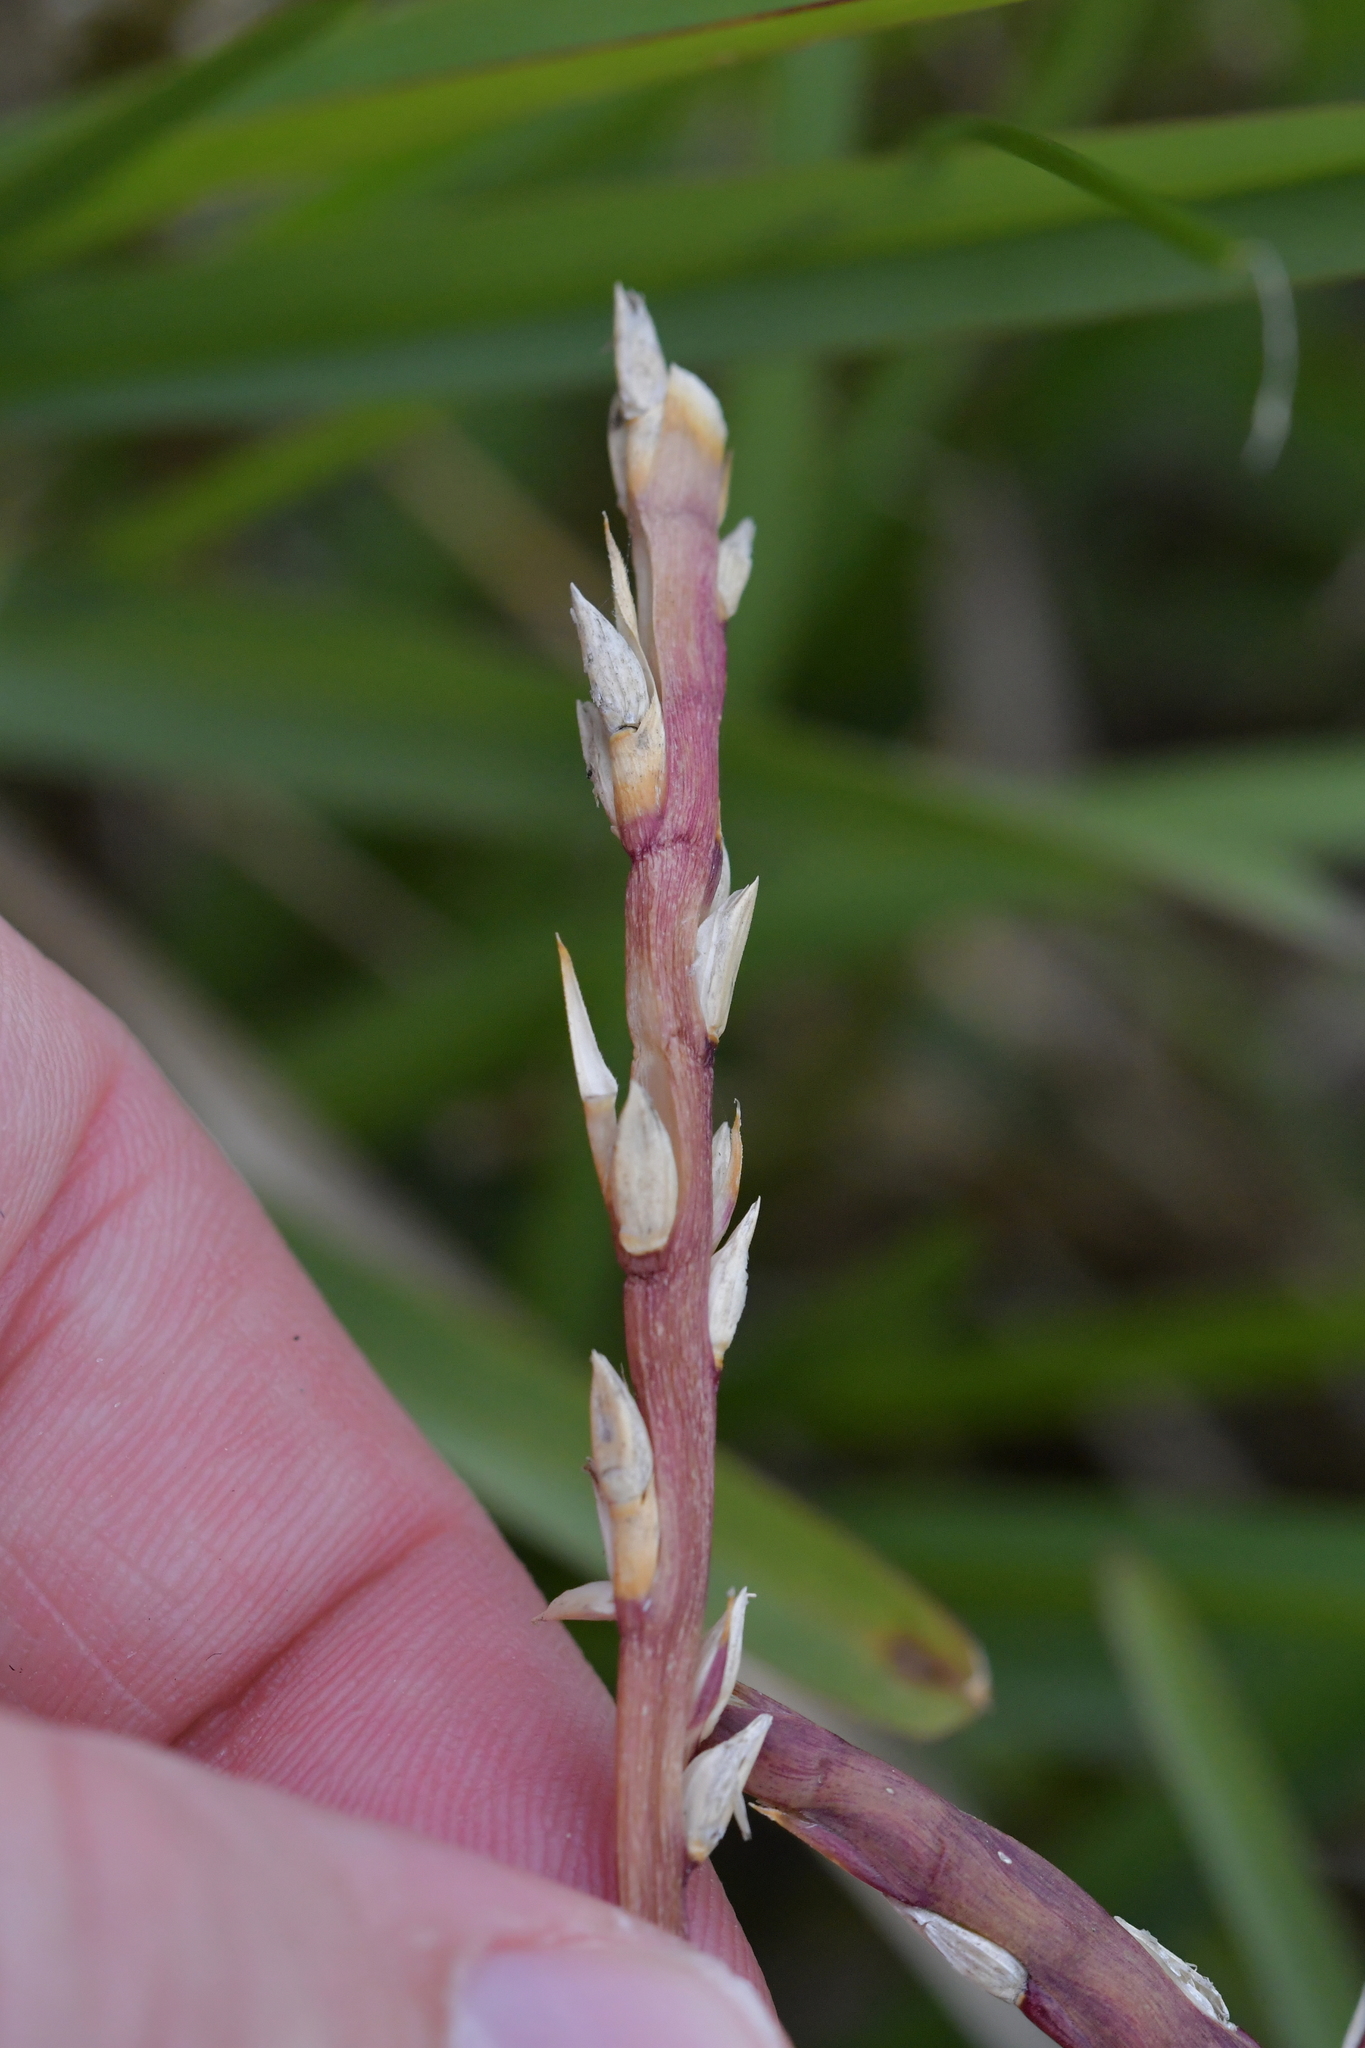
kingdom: Plantae
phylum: Tracheophyta
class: Liliopsida
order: Poales
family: Poaceae
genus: Stenotaphrum
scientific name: Stenotaphrum secundatum
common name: St. augustine grass
